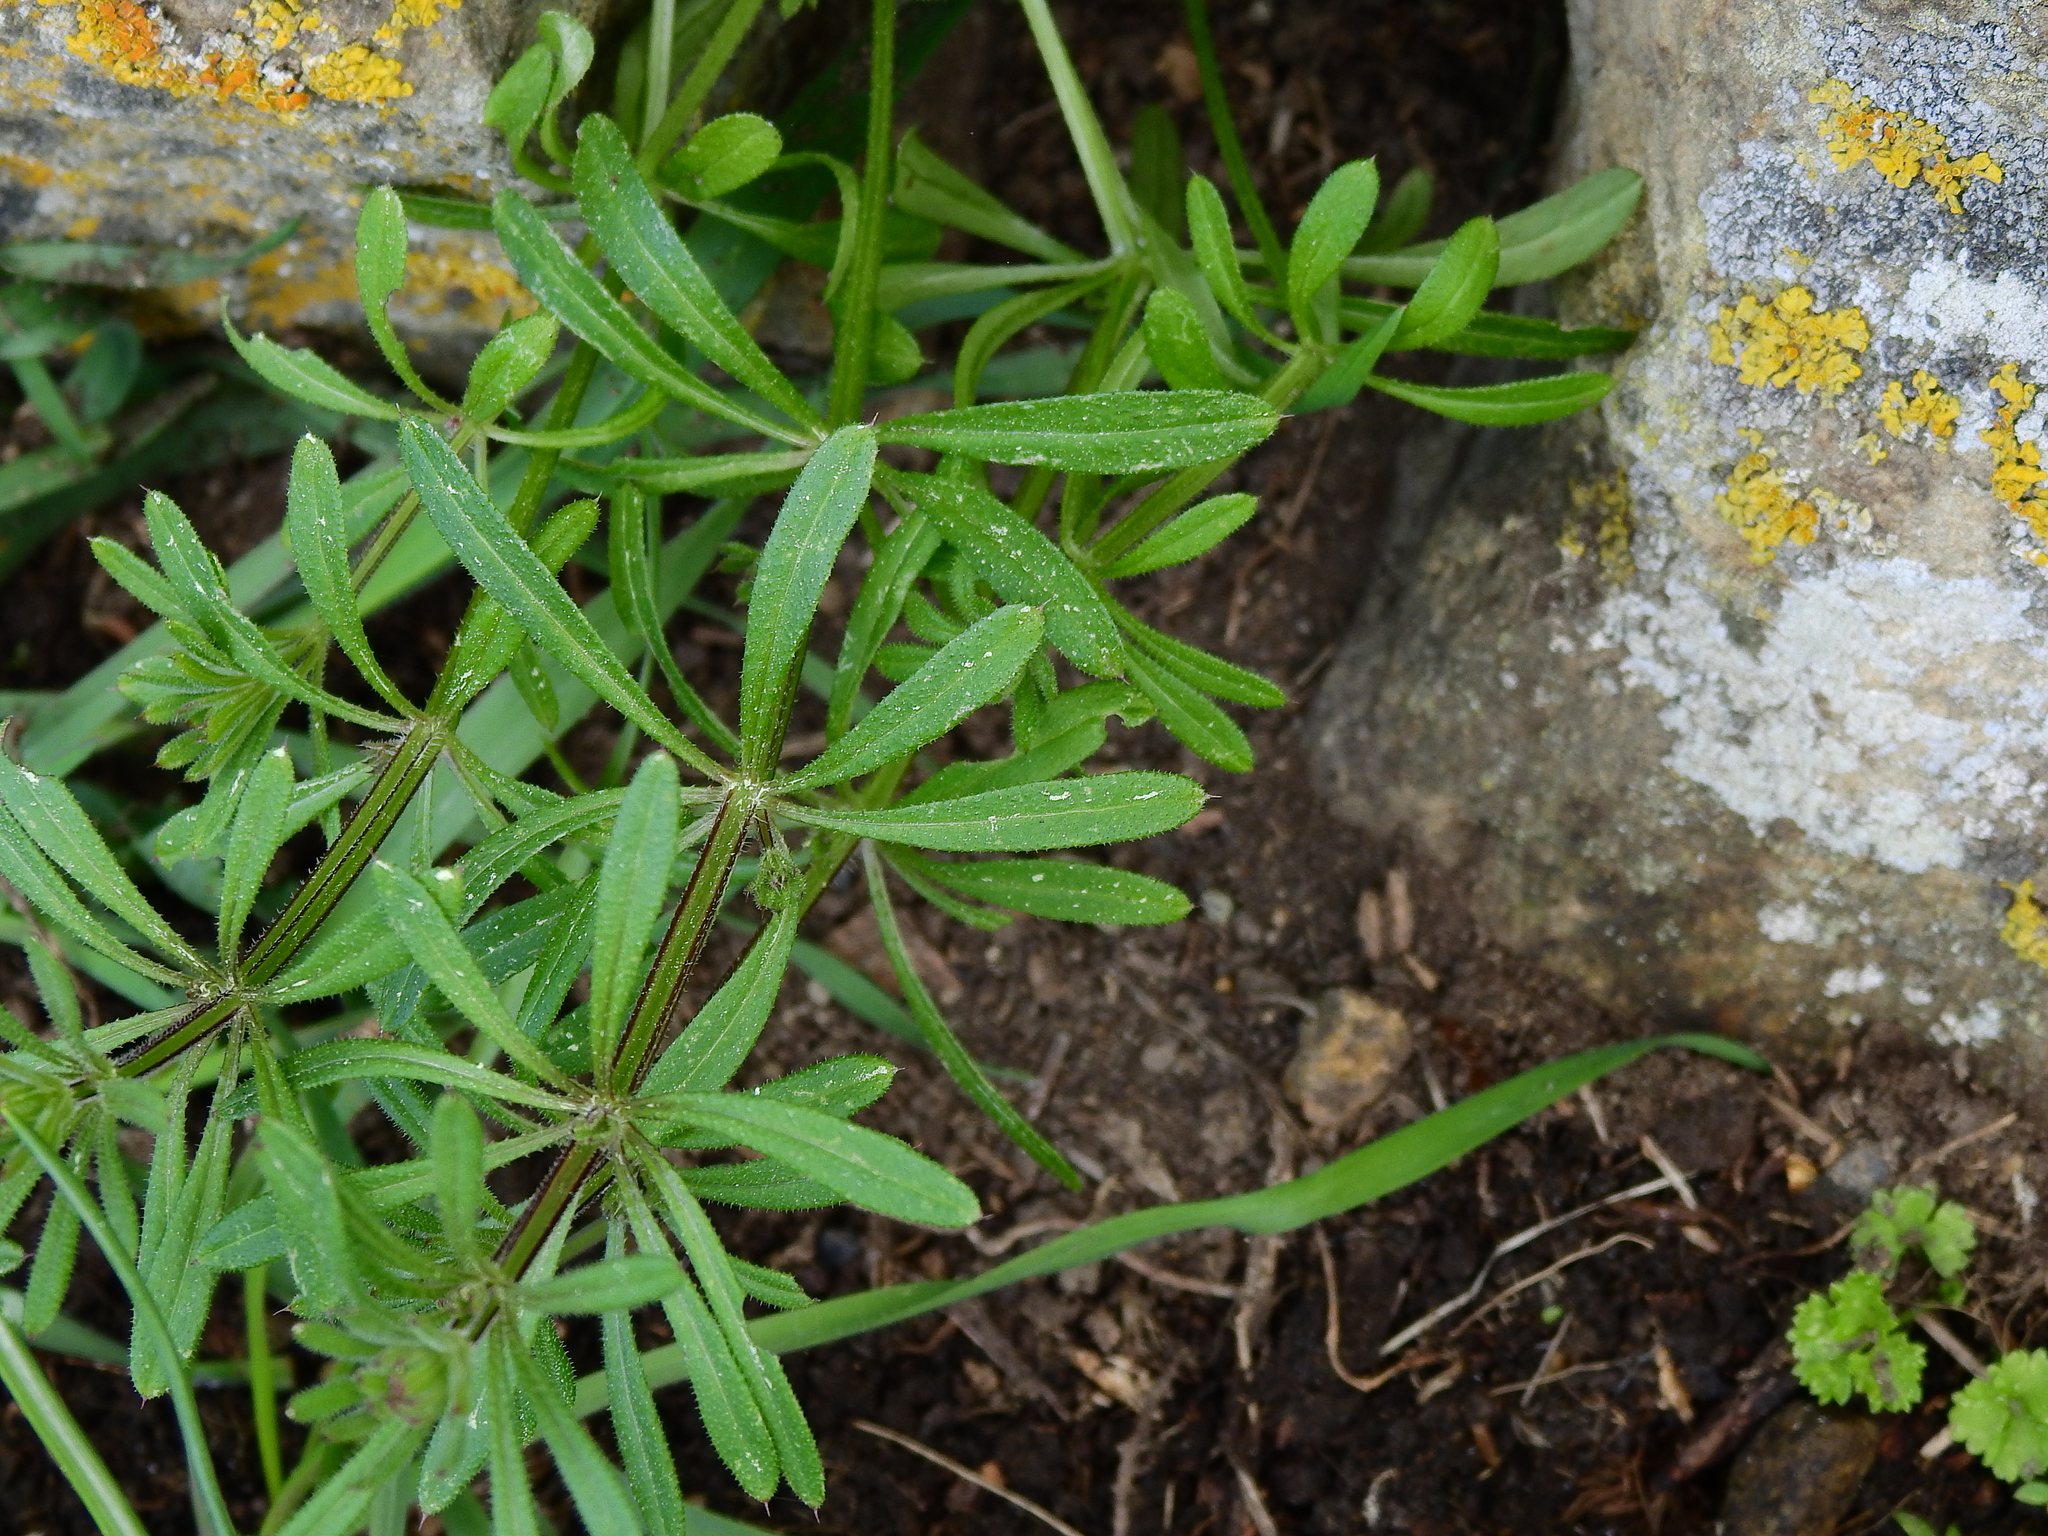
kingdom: Plantae
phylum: Tracheophyta
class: Magnoliopsida
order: Gentianales
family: Rubiaceae
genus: Galium
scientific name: Galium aparine
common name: Cleavers
